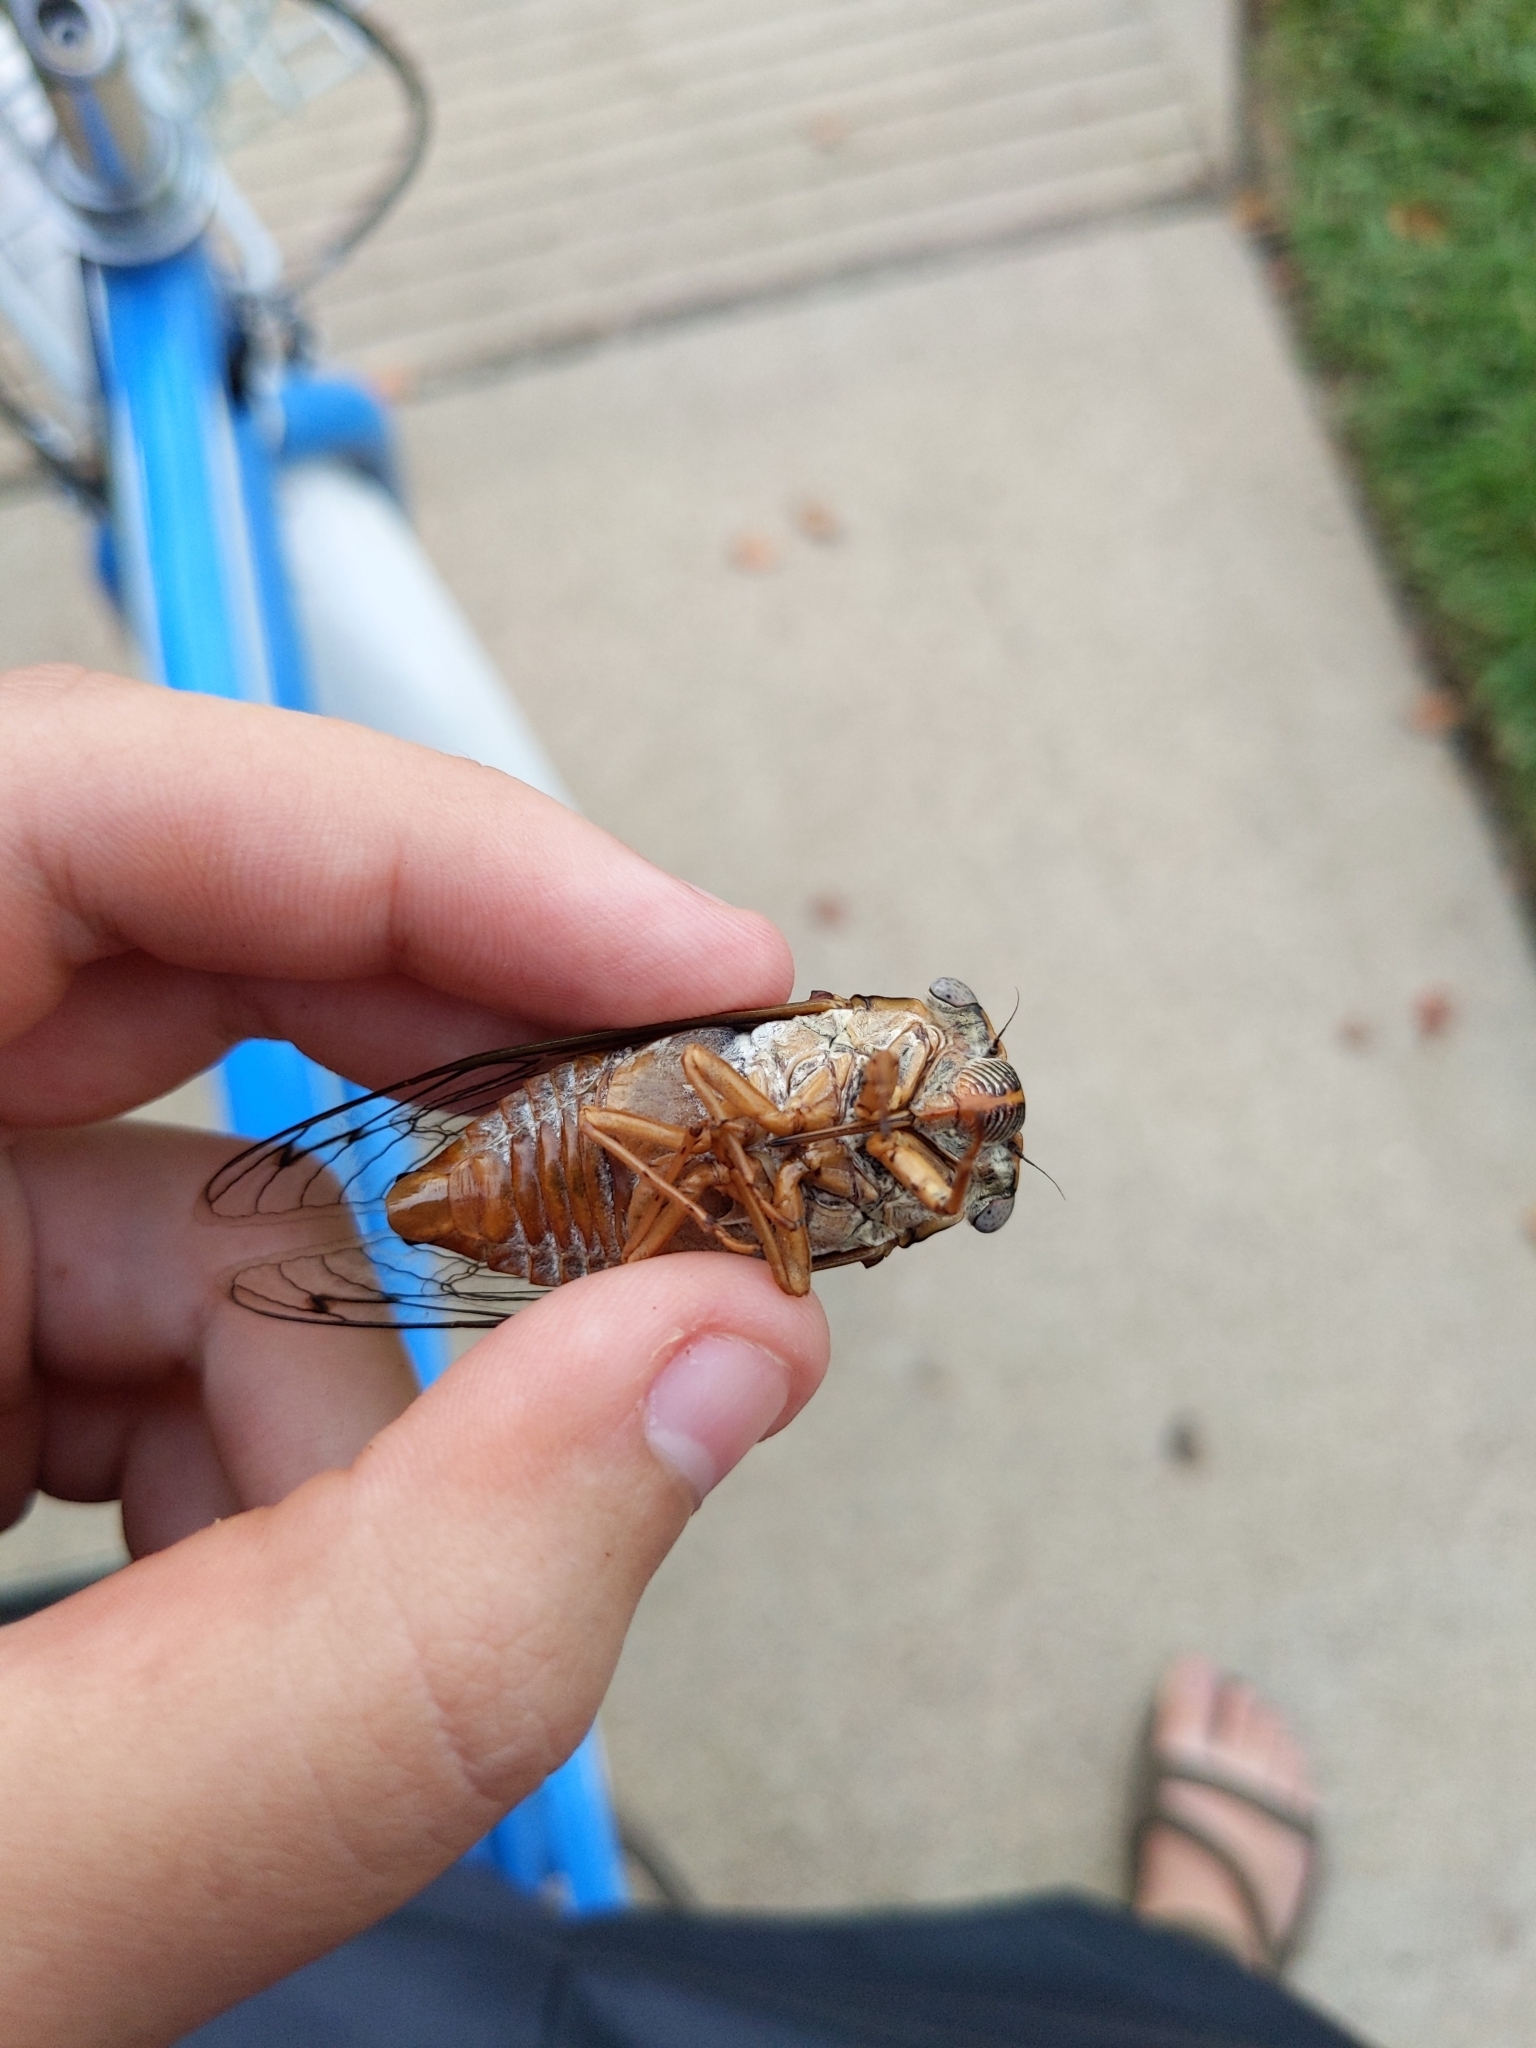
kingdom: Animalia
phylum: Arthropoda
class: Insecta
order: Hemiptera
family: Cicadidae
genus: Megatibicen
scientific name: Megatibicen resh
